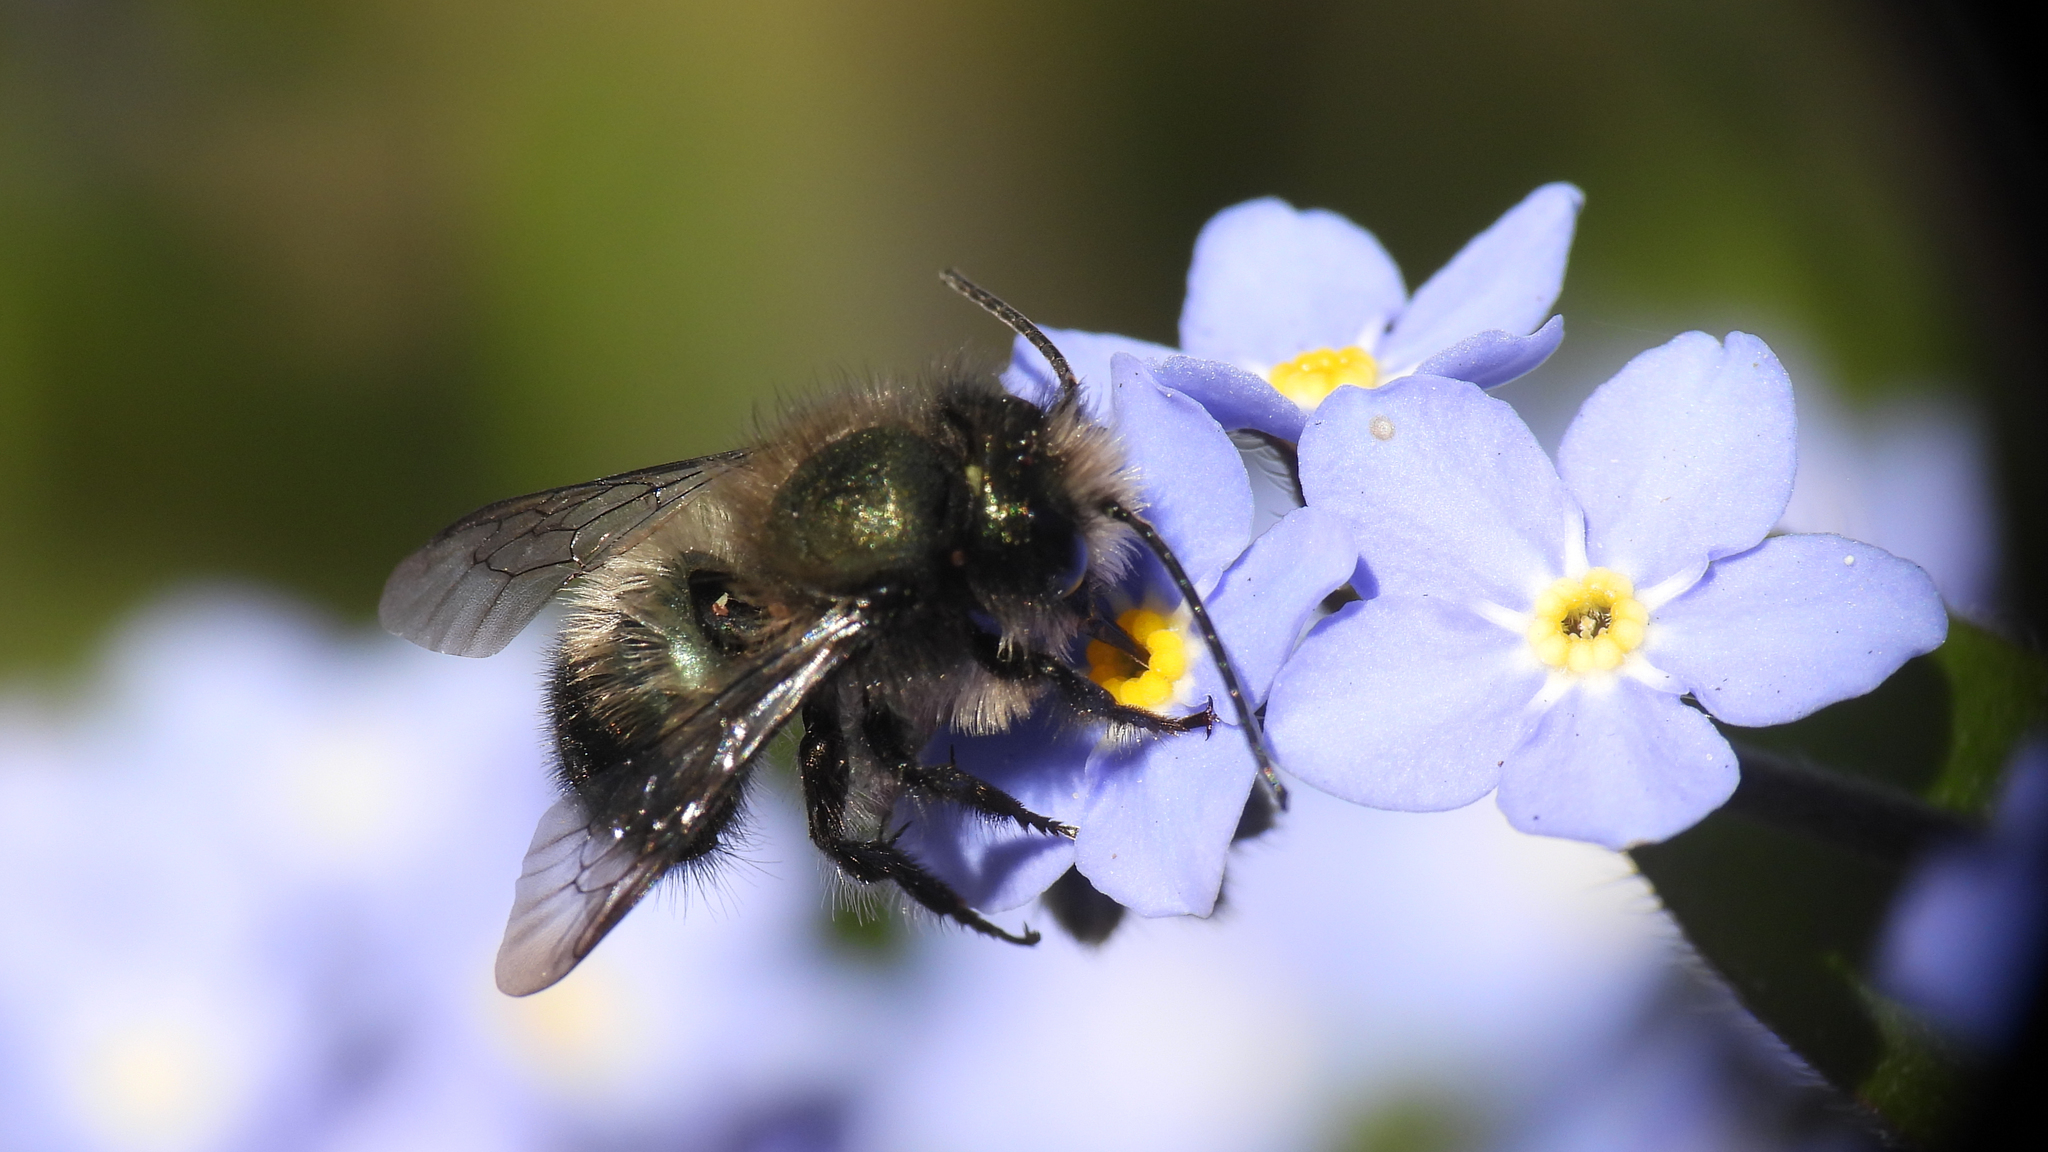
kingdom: Animalia
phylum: Arthropoda
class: Insecta
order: Hymenoptera
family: Megachilidae
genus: Osmia
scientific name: Osmia lignaria
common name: Blue orchard bee
